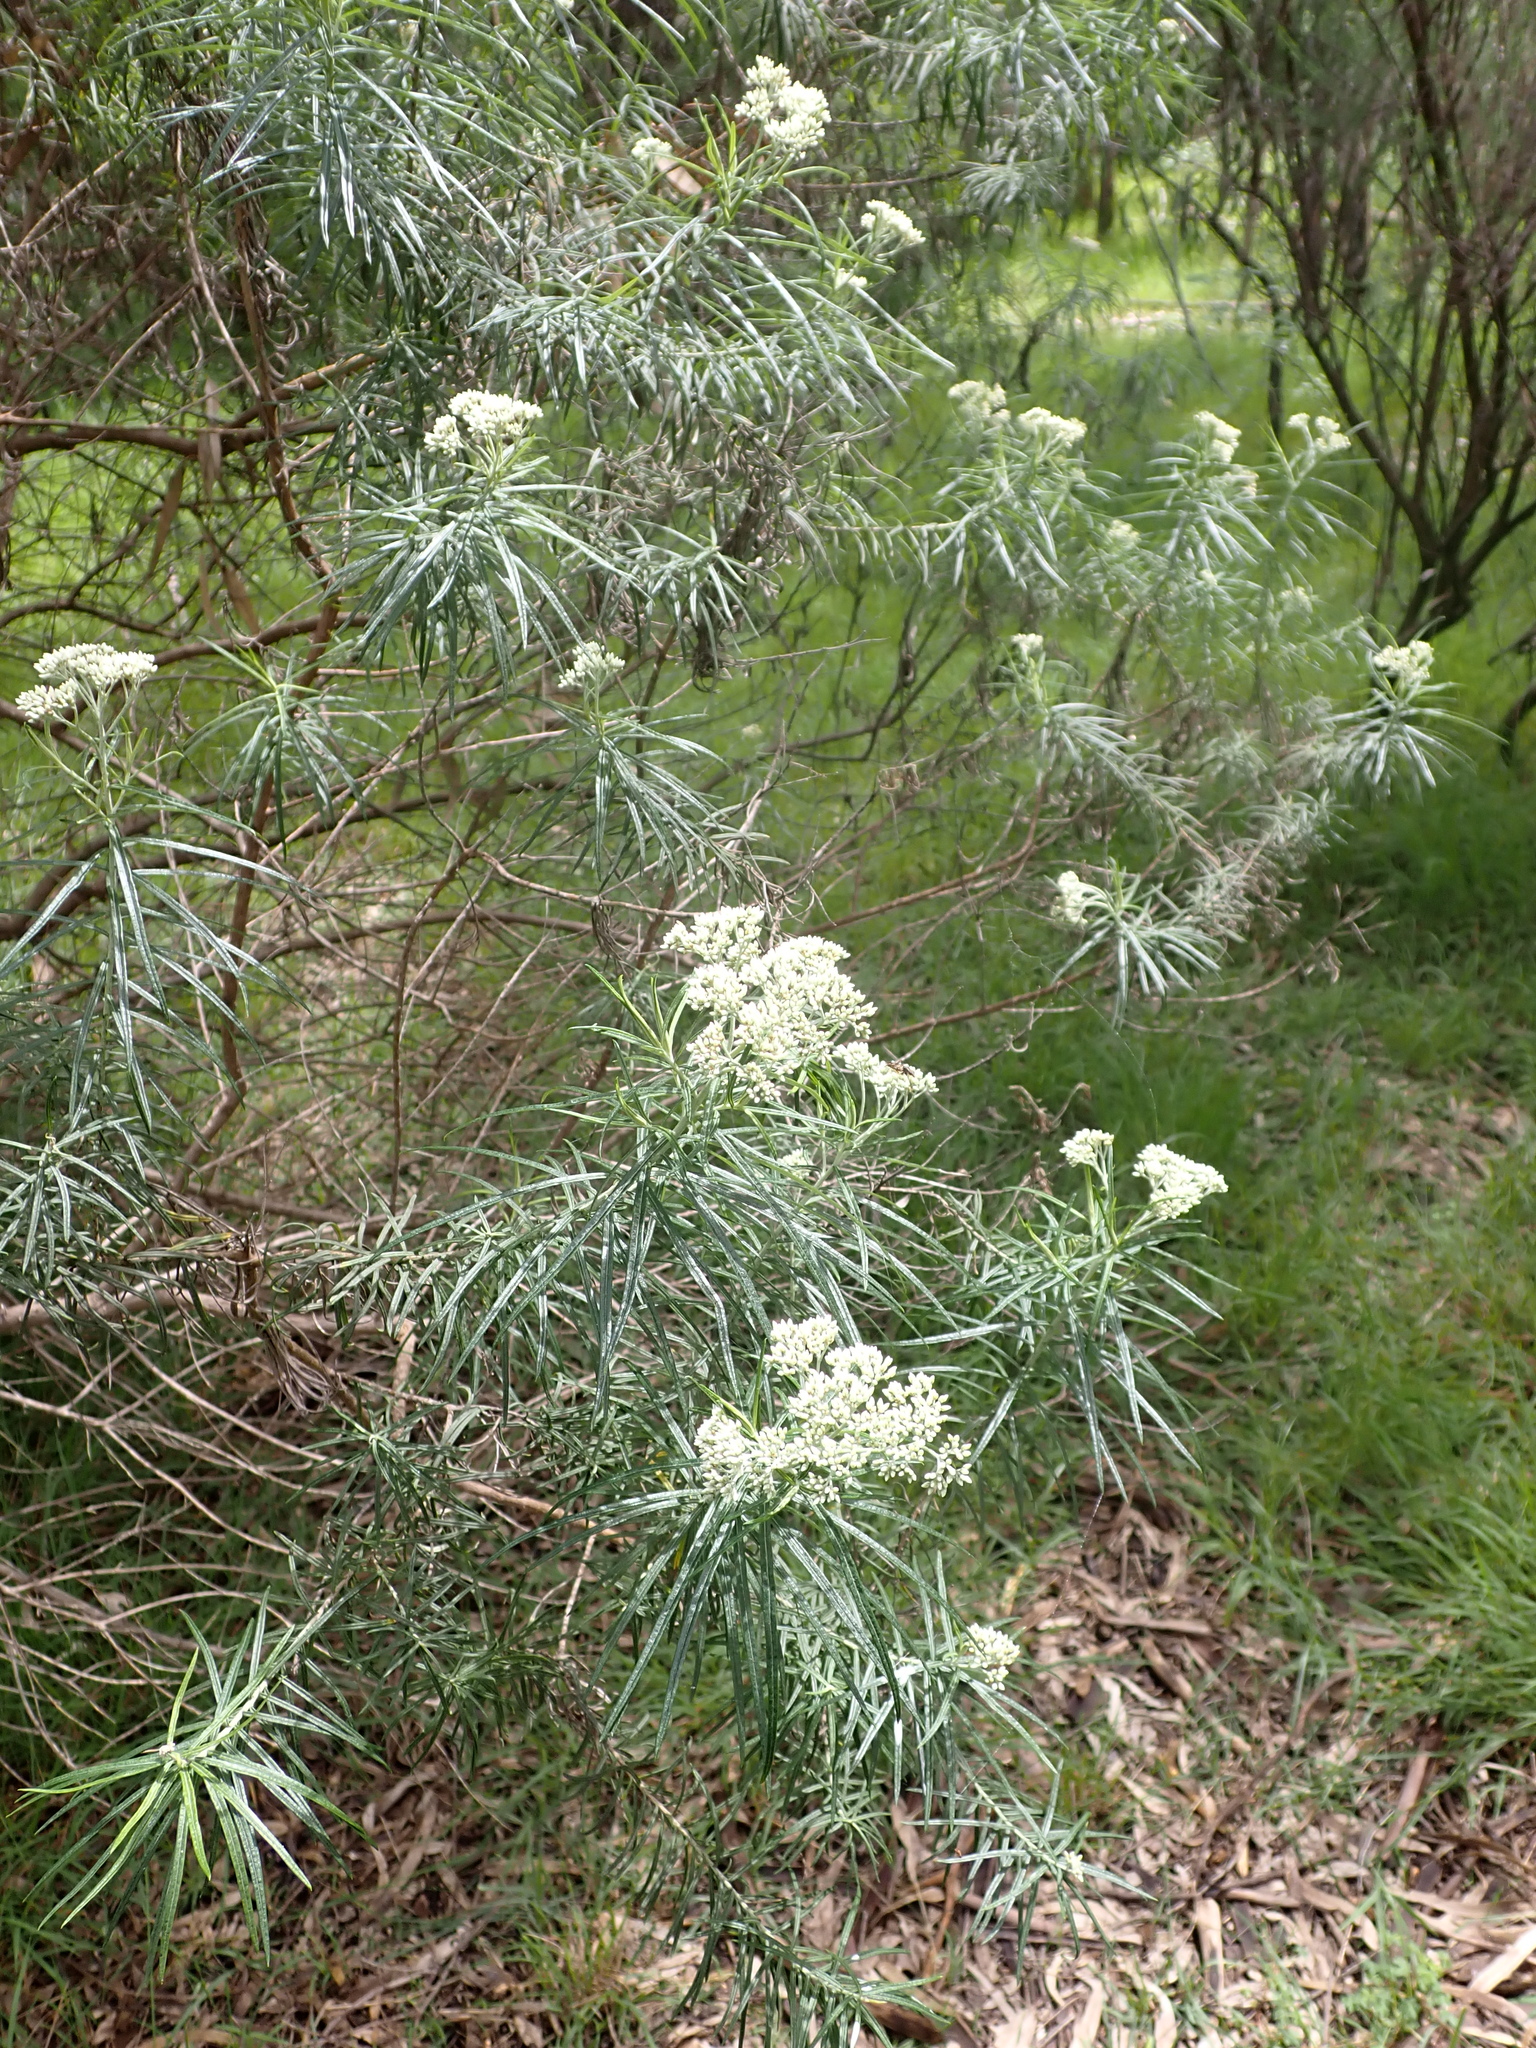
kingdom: Plantae
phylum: Tracheophyta
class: Magnoliopsida
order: Asterales
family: Asteraceae
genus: Cassinia
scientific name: Cassinia longifolia
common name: Longleaf-dogwood
